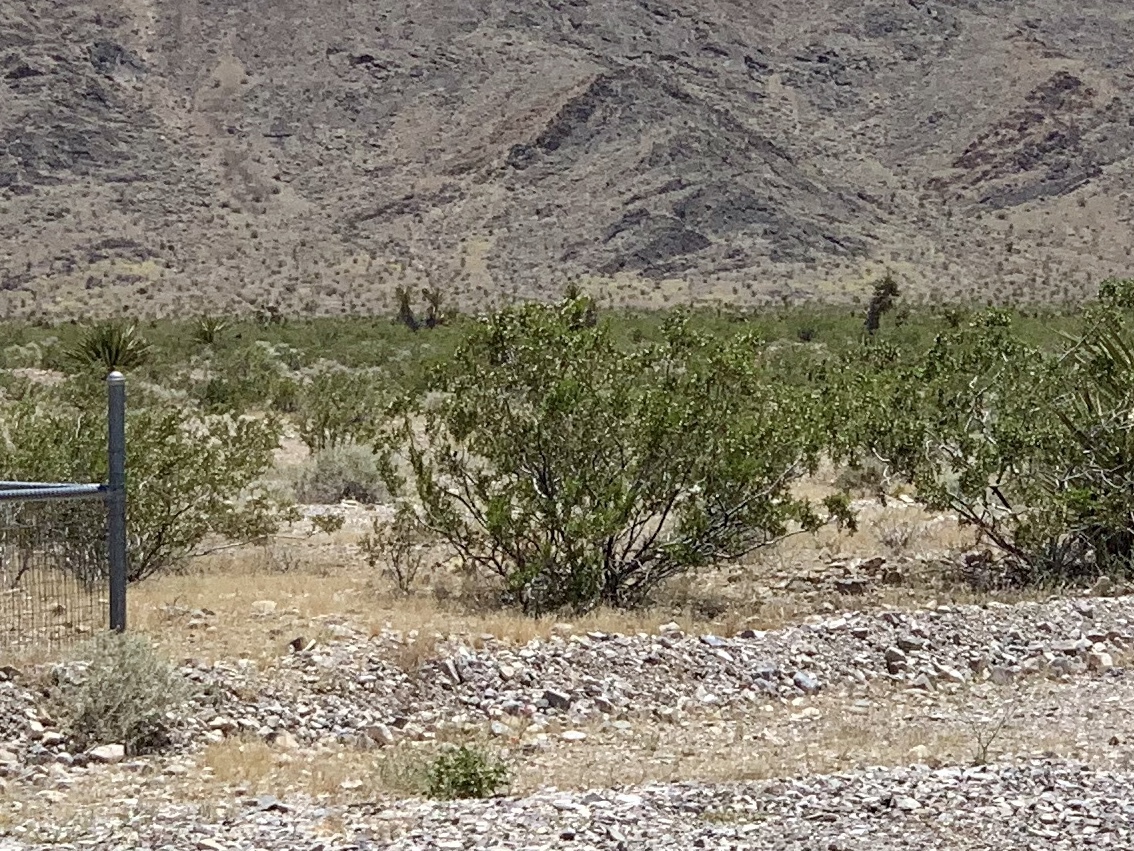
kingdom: Plantae
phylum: Tracheophyta
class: Magnoliopsida
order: Zygophyllales
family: Zygophyllaceae
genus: Larrea
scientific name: Larrea tridentata
